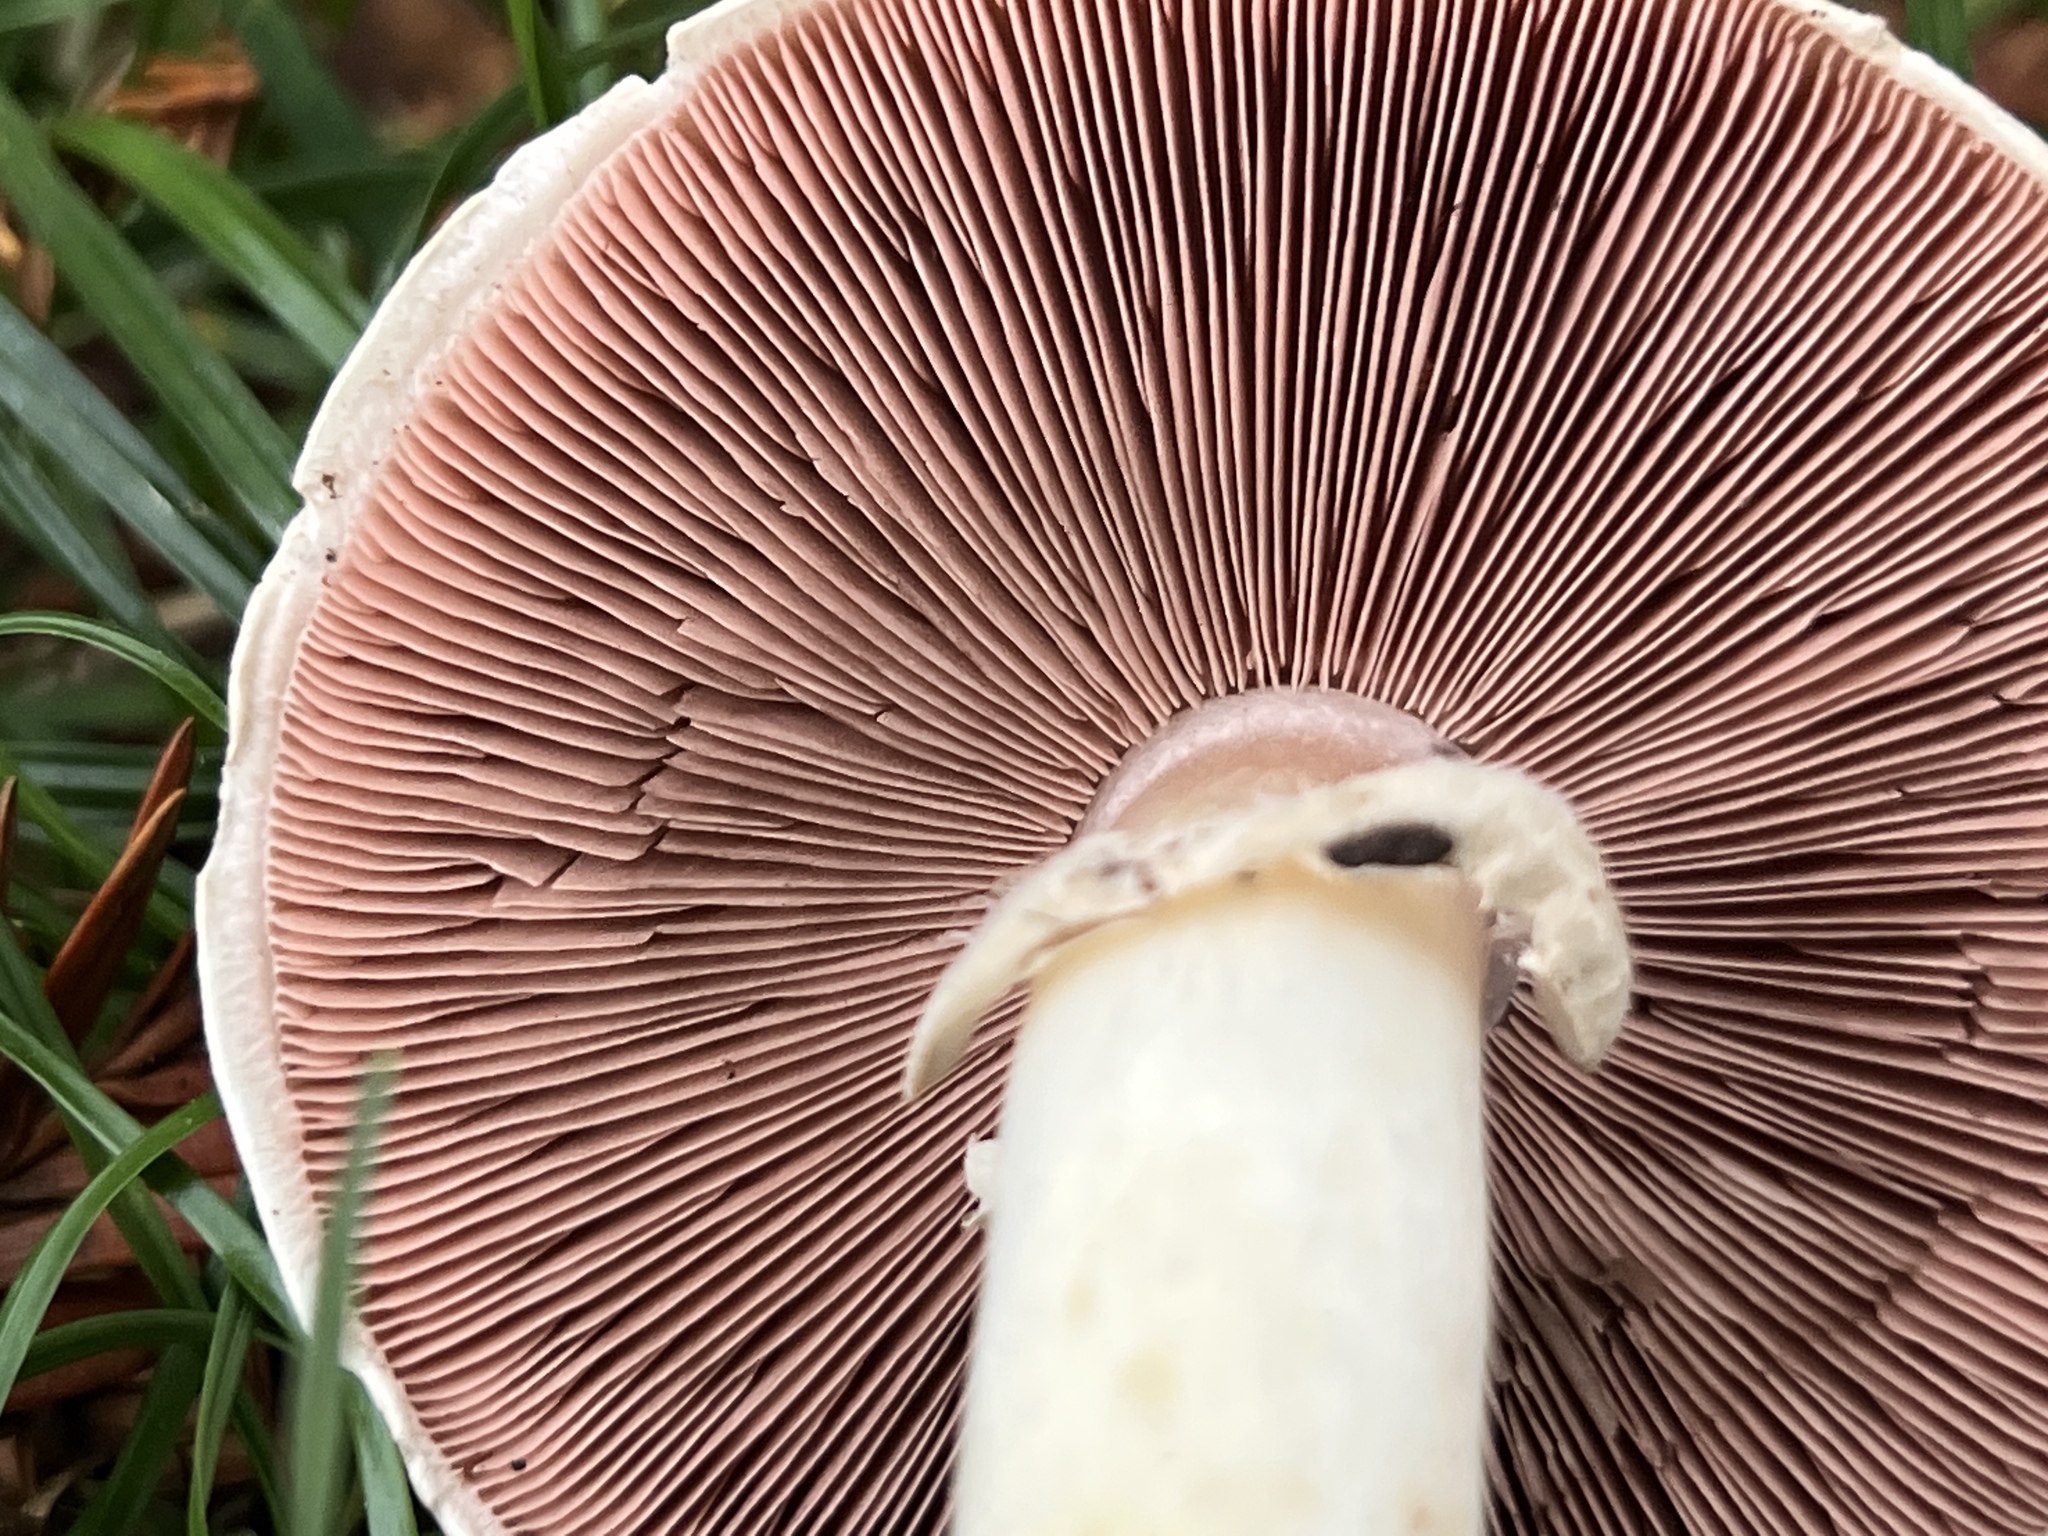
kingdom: Fungi
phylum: Basidiomycota
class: Agaricomycetes
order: Agaricales
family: Agaricaceae
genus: Agaricus
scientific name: Agaricus californicus
